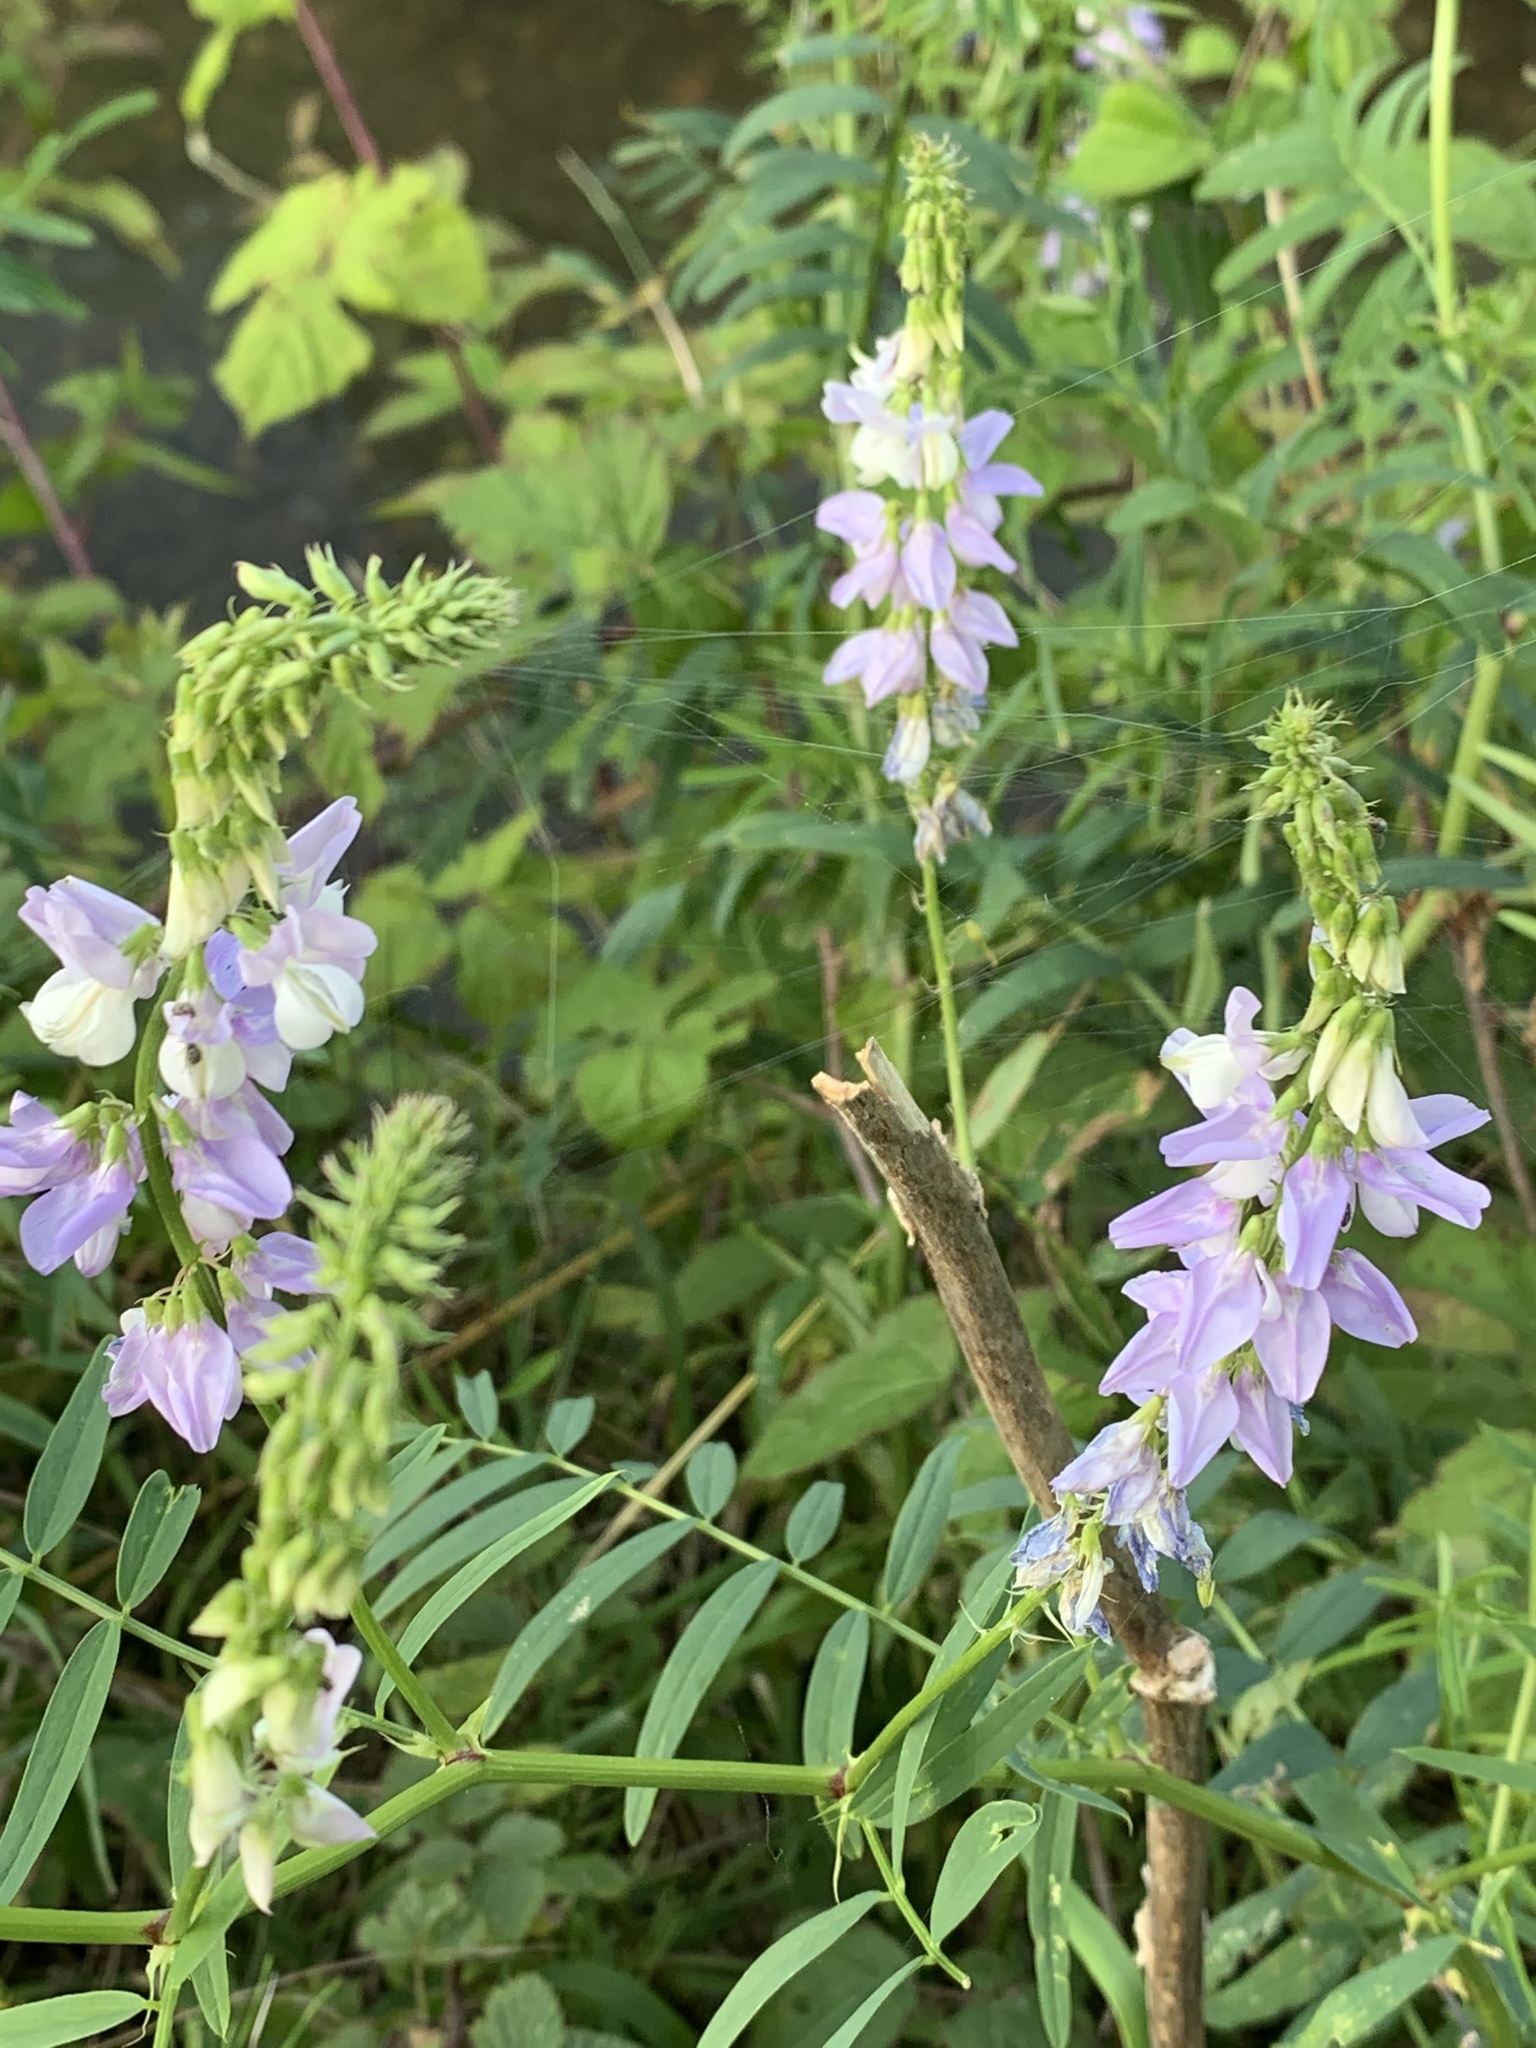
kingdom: Plantae
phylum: Tracheophyta
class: Magnoliopsida
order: Fabales
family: Fabaceae
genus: Galega
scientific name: Galega officinalis
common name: Goat's-rue
